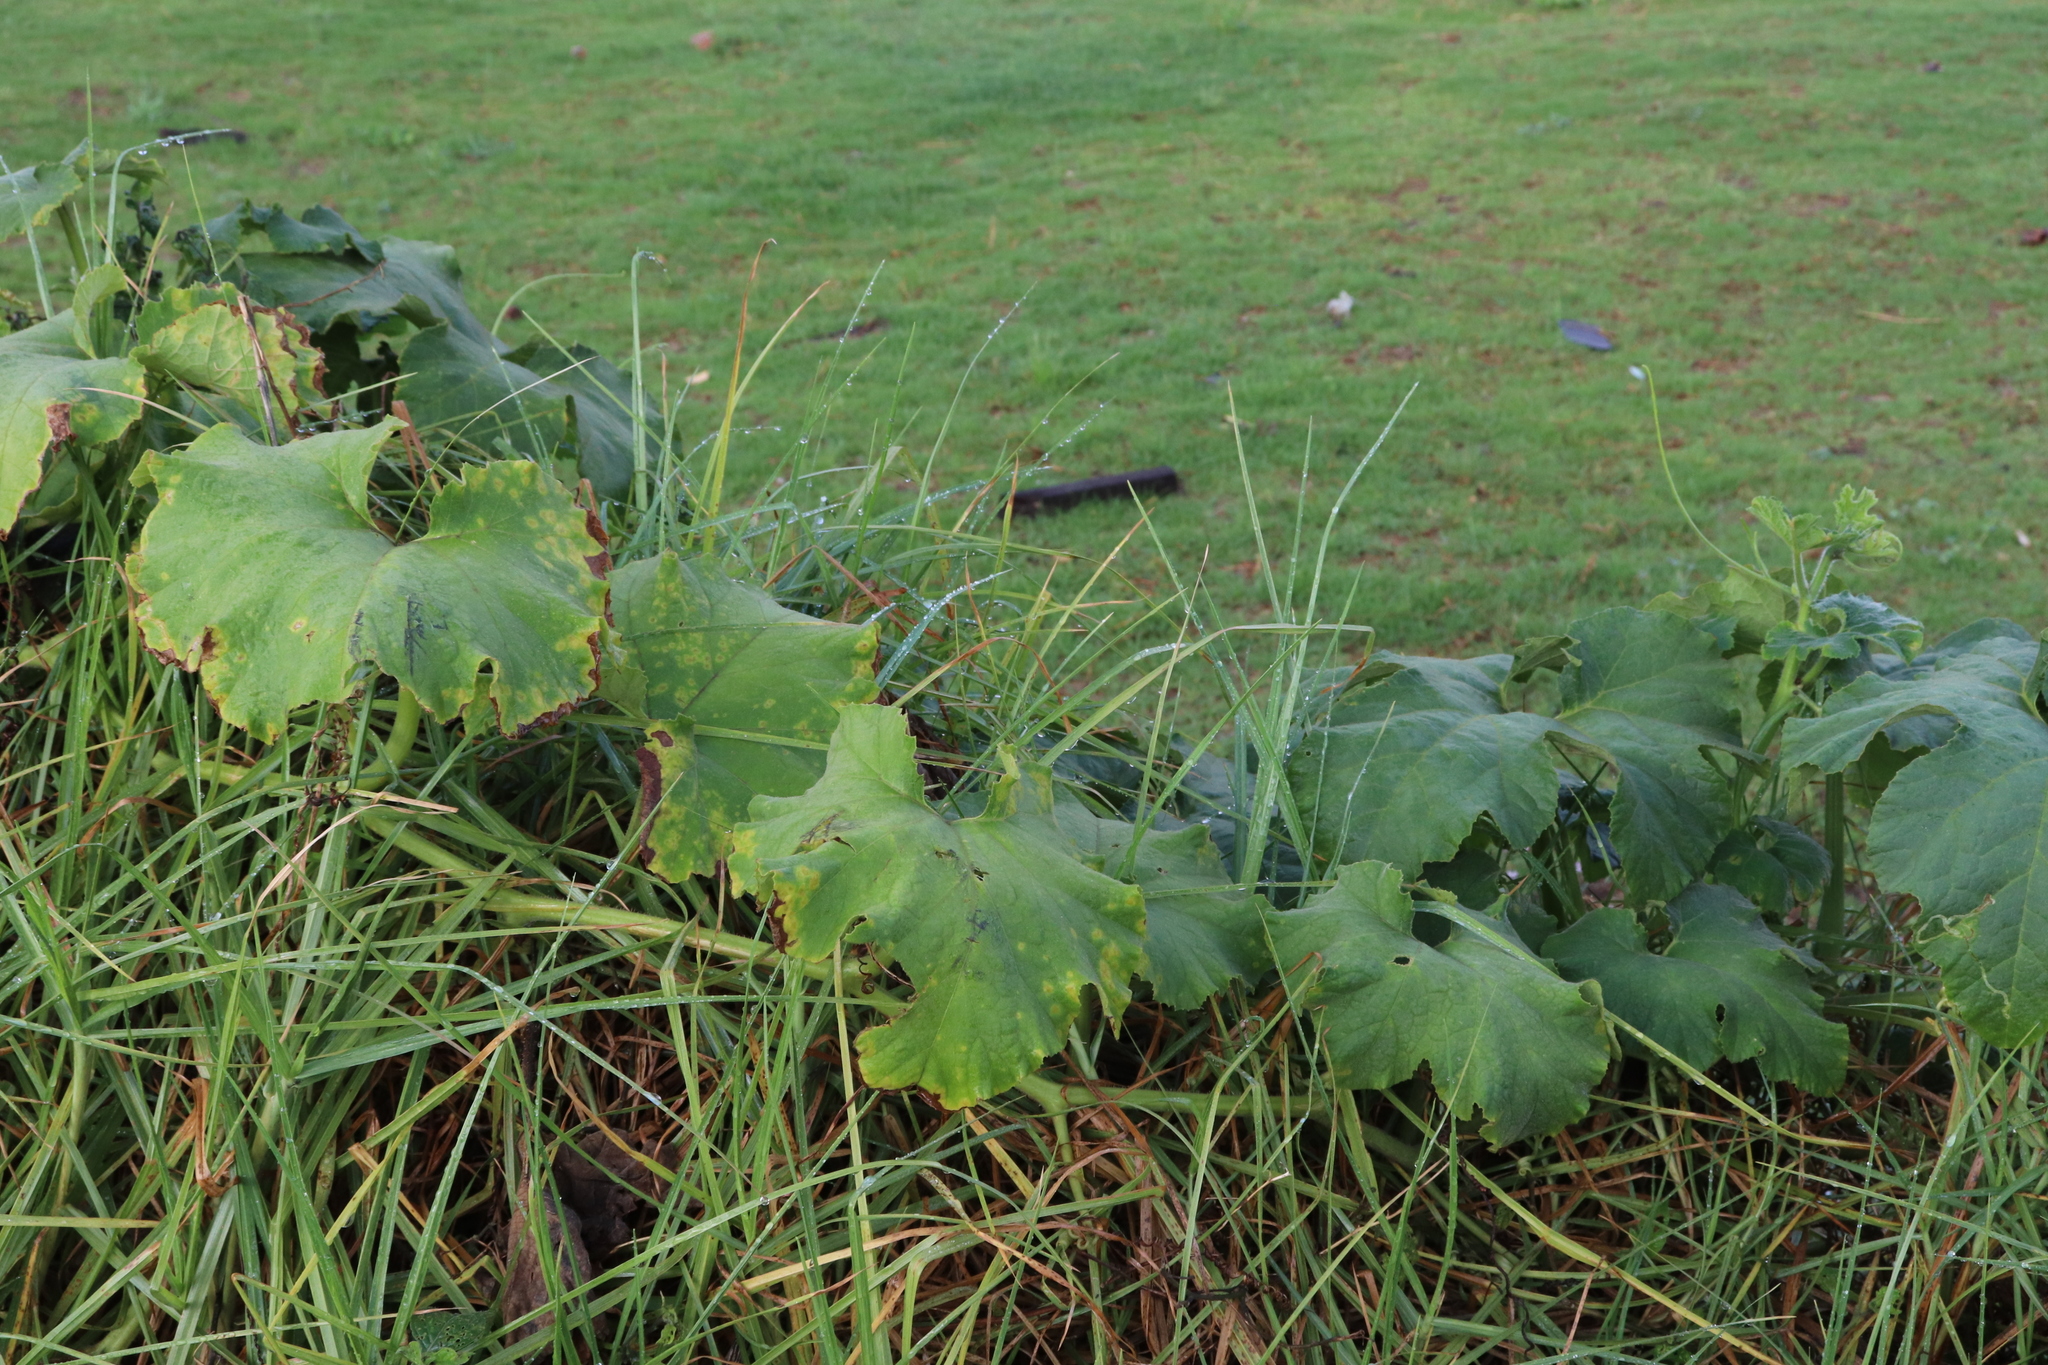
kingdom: Plantae
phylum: Tracheophyta
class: Magnoliopsida
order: Cucurbitales
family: Cucurbitaceae
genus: Cucurbita
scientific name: Cucurbita maxima
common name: Pumpkin
